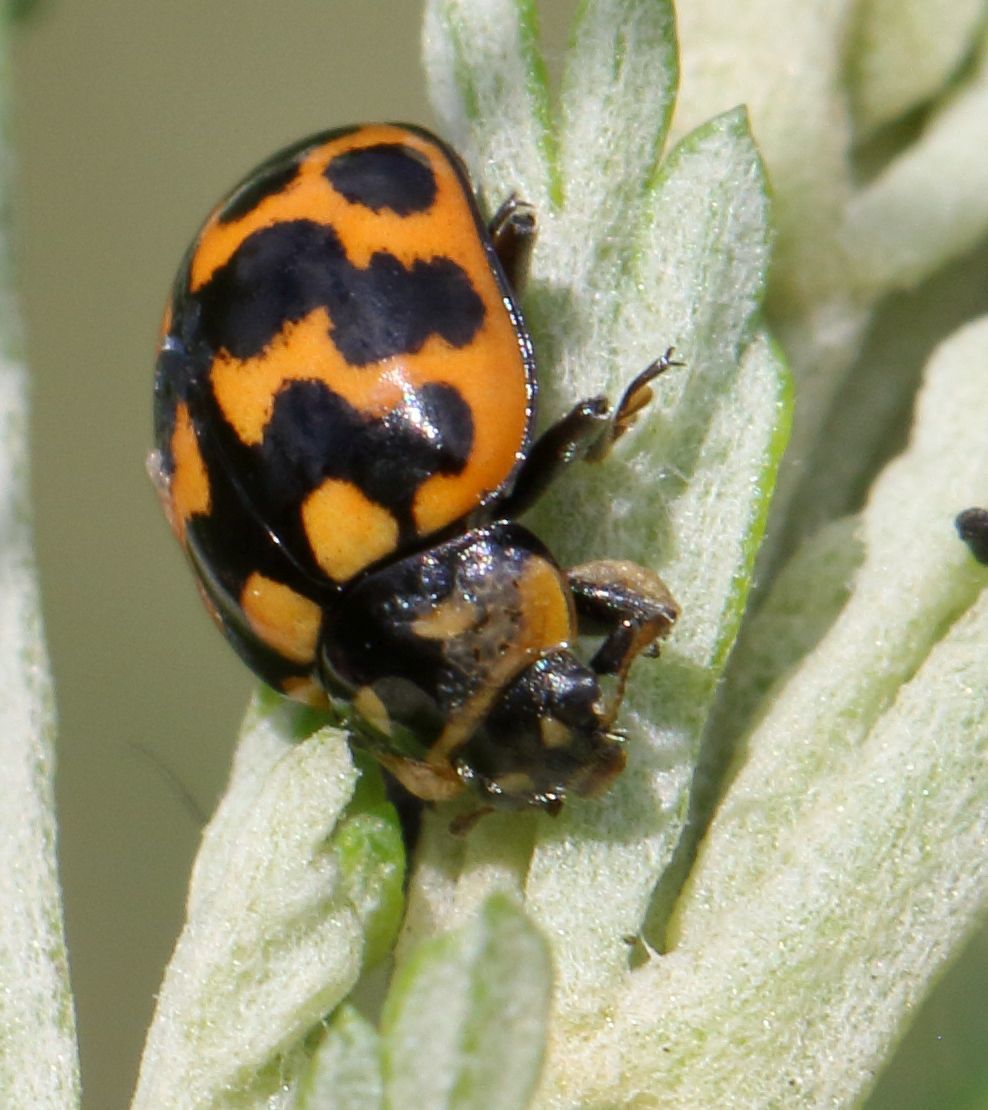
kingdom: Animalia
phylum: Arthropoda
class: Insecta
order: Coleoptera
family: Coccinellidae
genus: Lioadalia
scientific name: Lioadalia flavomaculata
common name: Ladybird beetle
